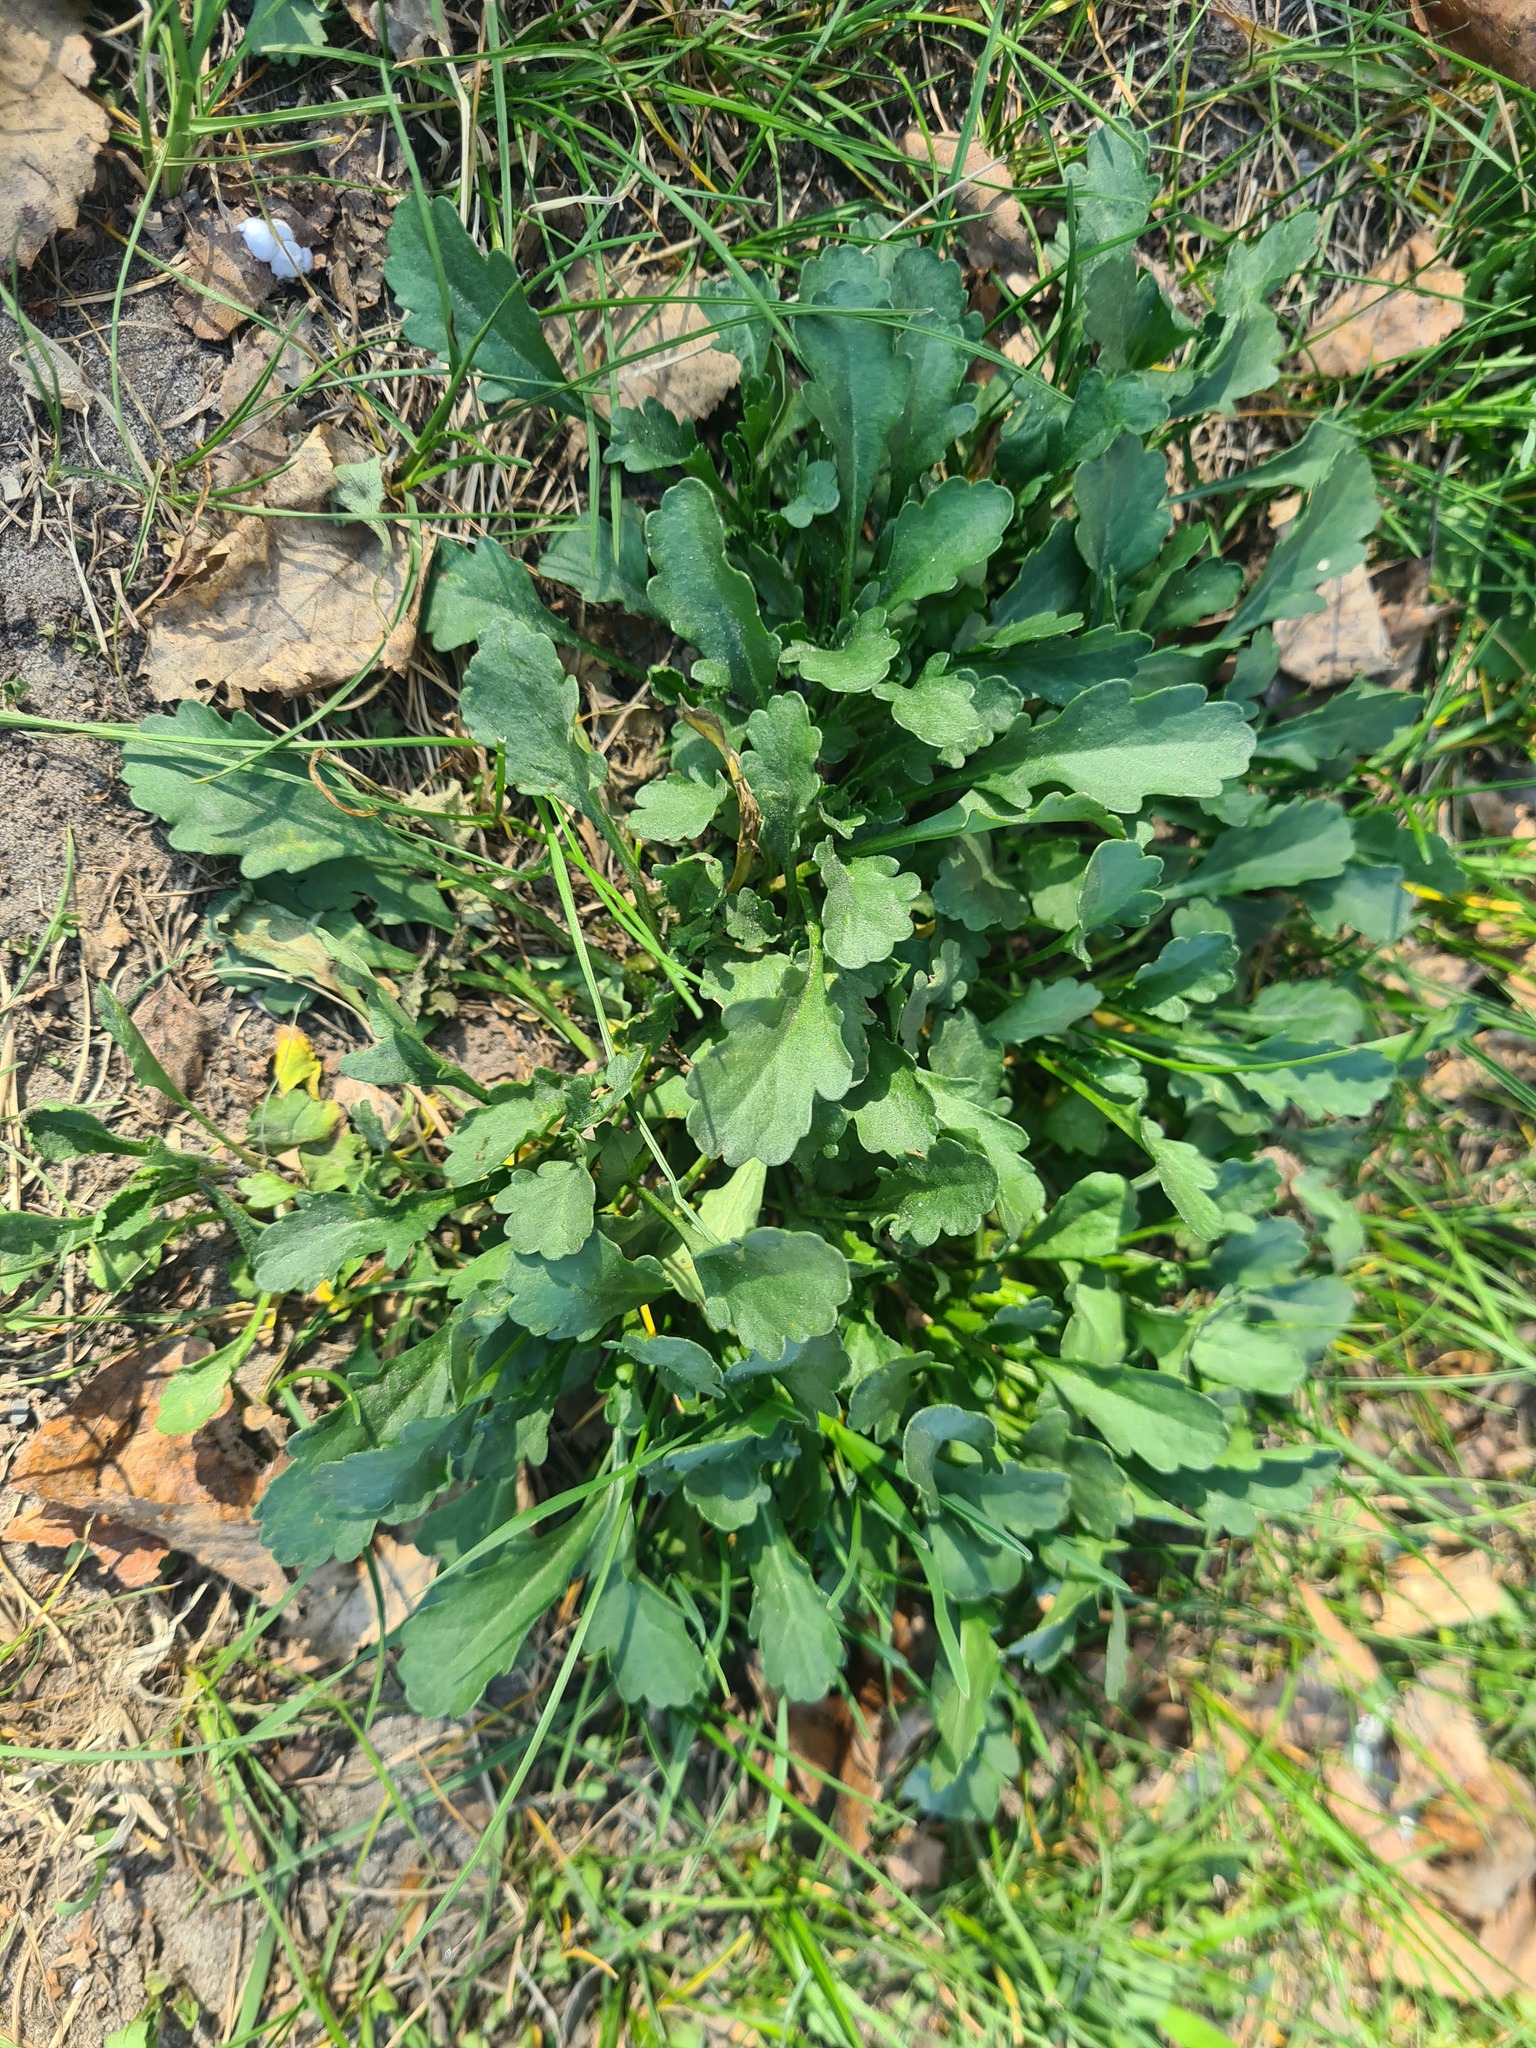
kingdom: Plantae
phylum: Tracheophyta
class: Magnoliopsida
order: Asterales
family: Asteraceae
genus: Leucanthemum
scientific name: Leucanthemum ircutianum
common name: Daisy
